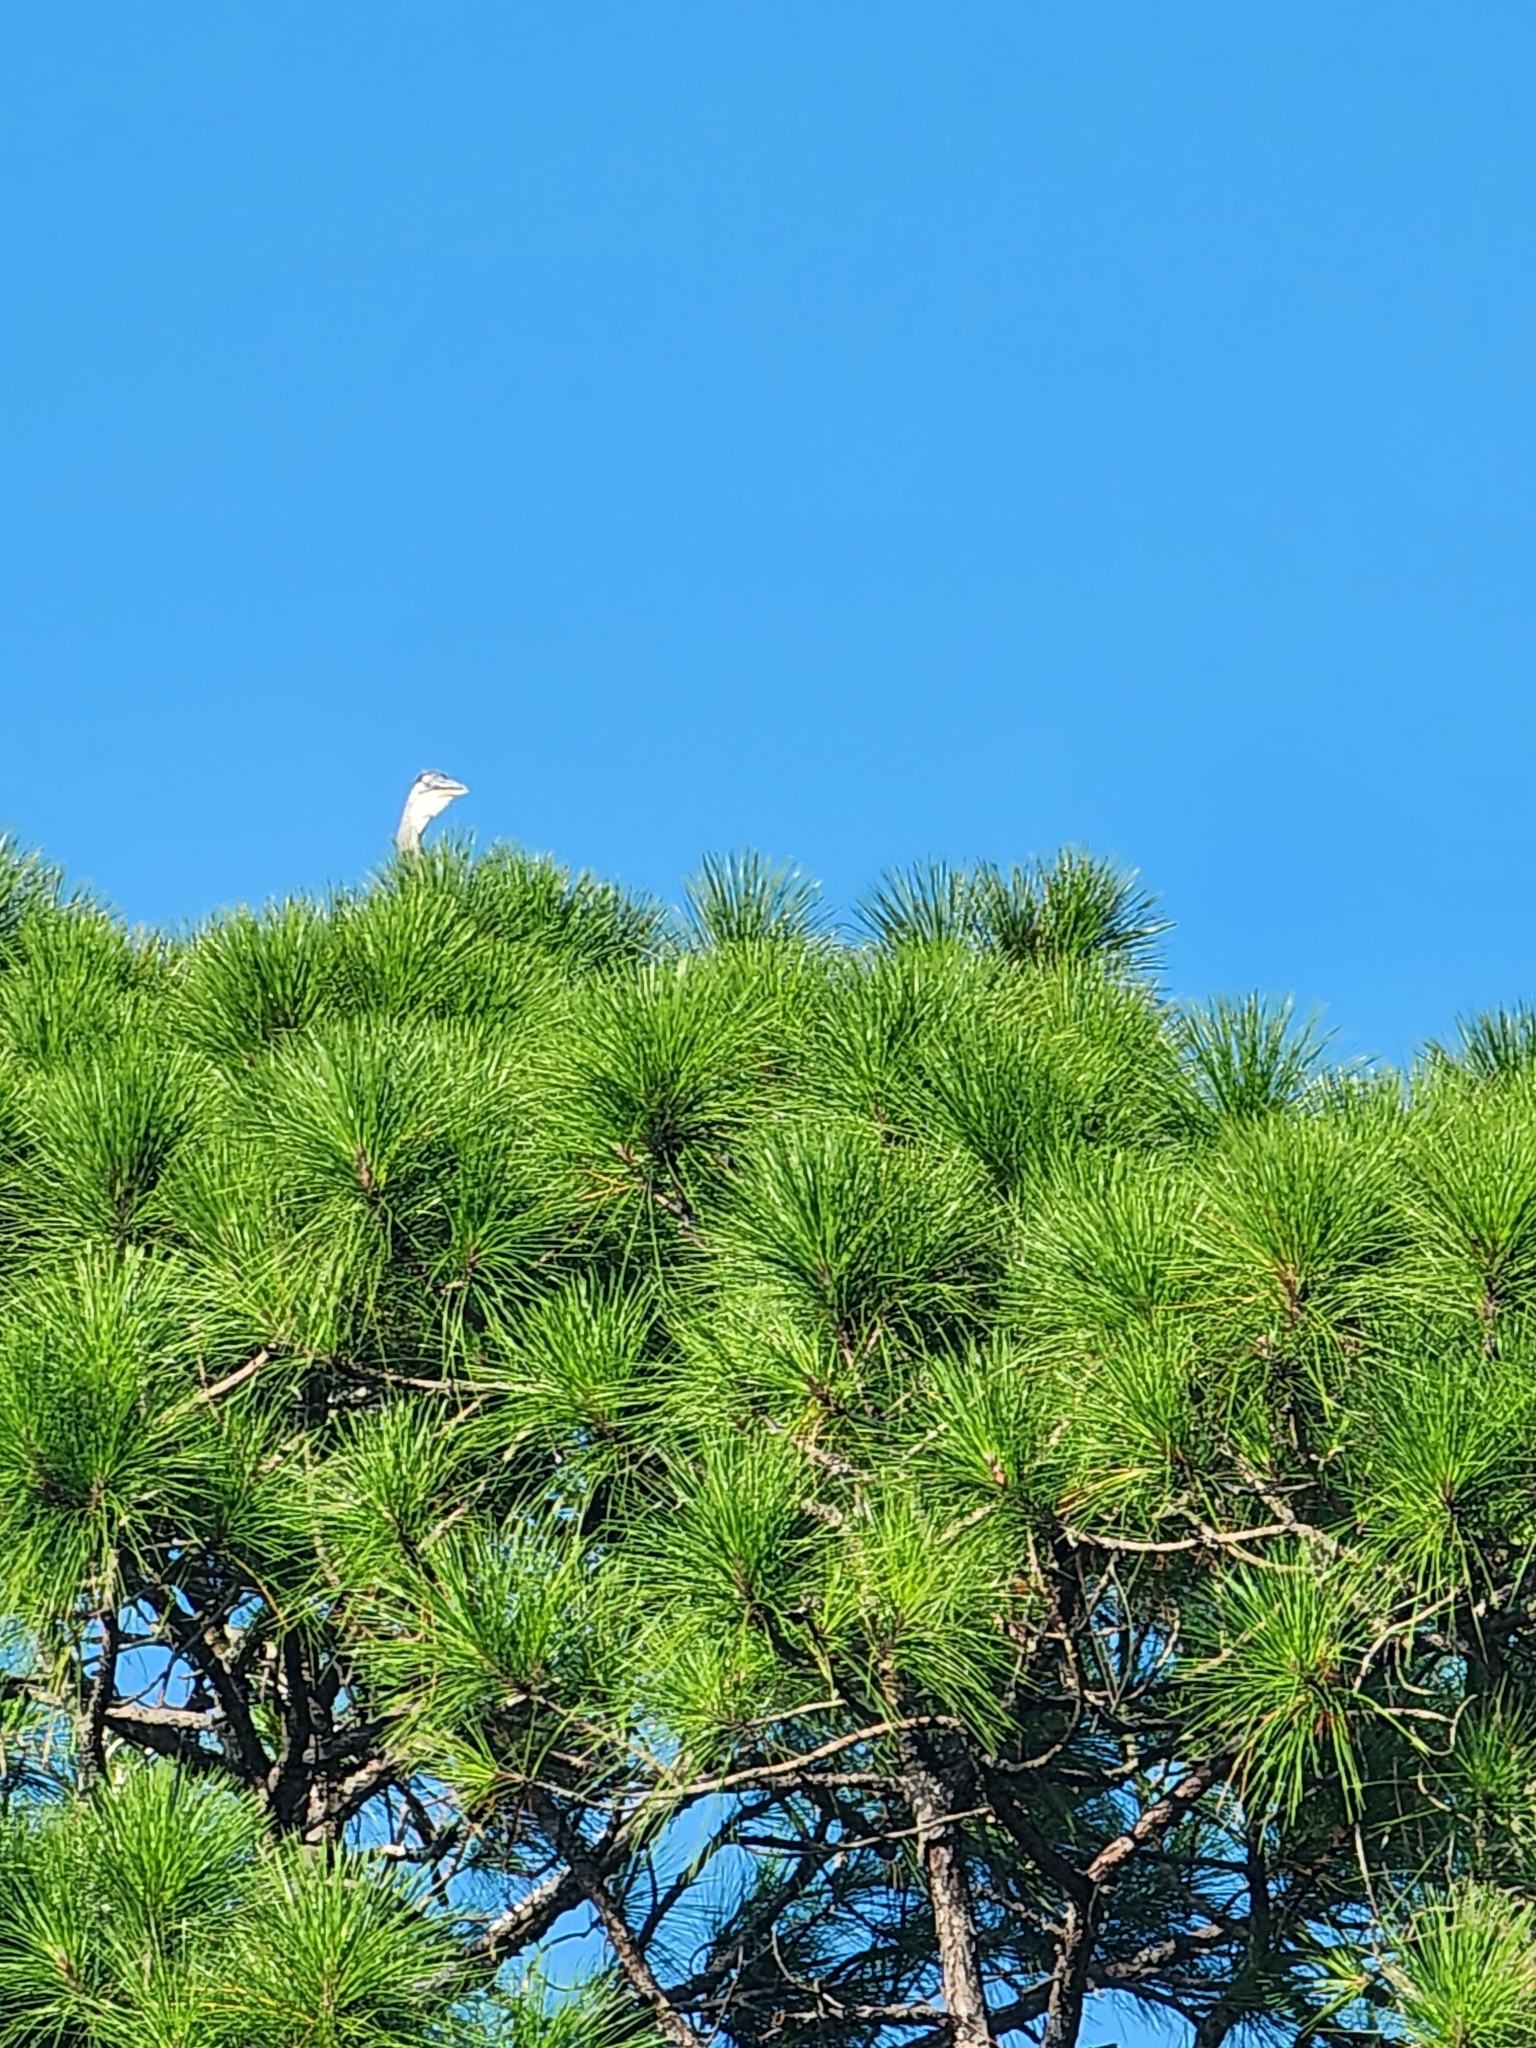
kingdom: Animalia
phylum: Chordata
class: Aves
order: Pelecaniformes
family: Ardeidae
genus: Ardea
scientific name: Ardea herodias
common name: Great blue heron
